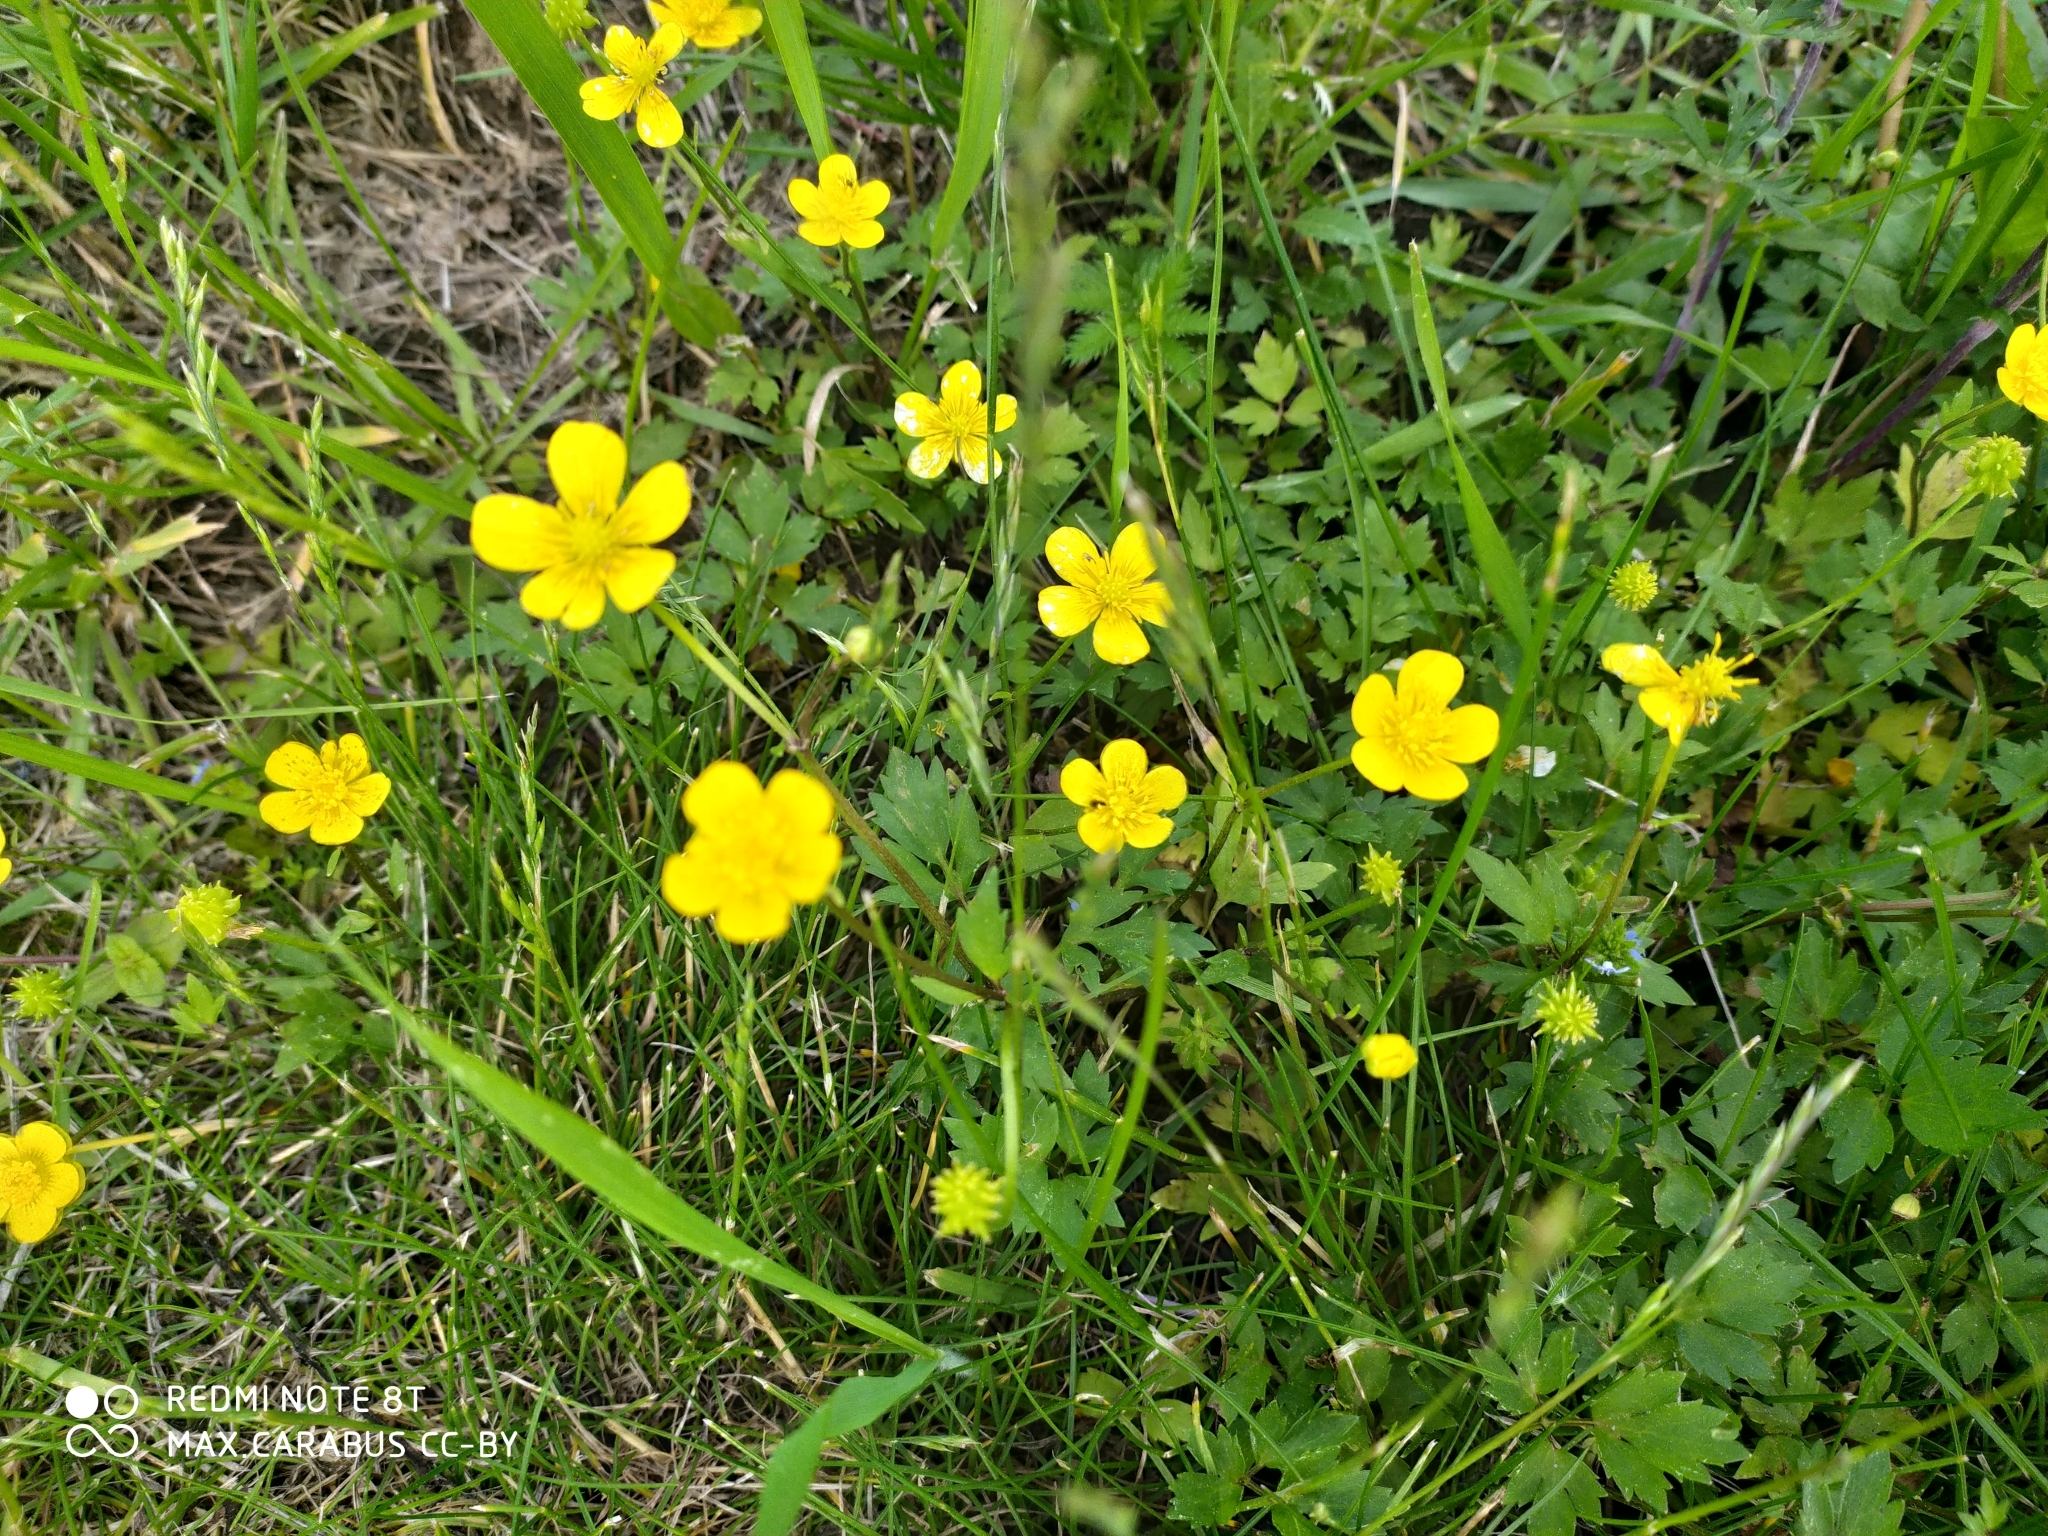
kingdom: Plantae
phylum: Tracheophyta
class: Magnoliopsida
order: Ranunculales
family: Ranunculaceae
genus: Ranunculus
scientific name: Ranunculus repens
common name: Creeping buttercup
